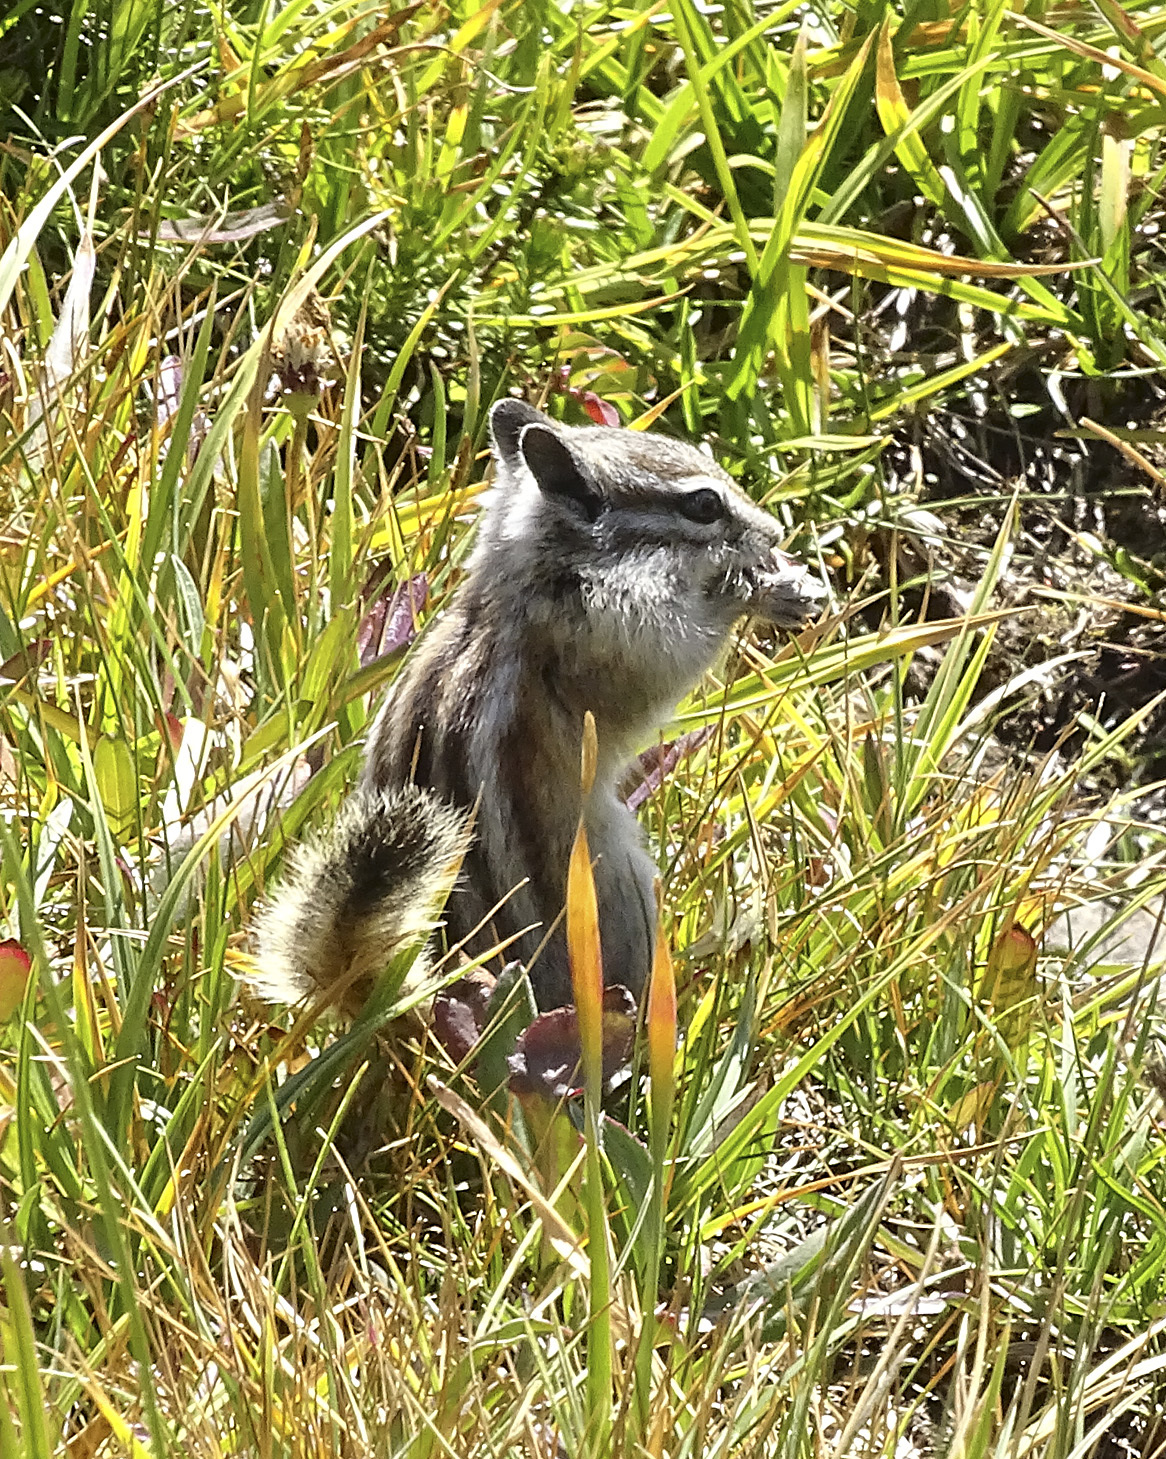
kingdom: Animalia
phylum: Chordata
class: Mammalia
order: Rodentia
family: Sciuridae
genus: Tamias
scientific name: Tamias alpinus
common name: Alpine chipmunk
